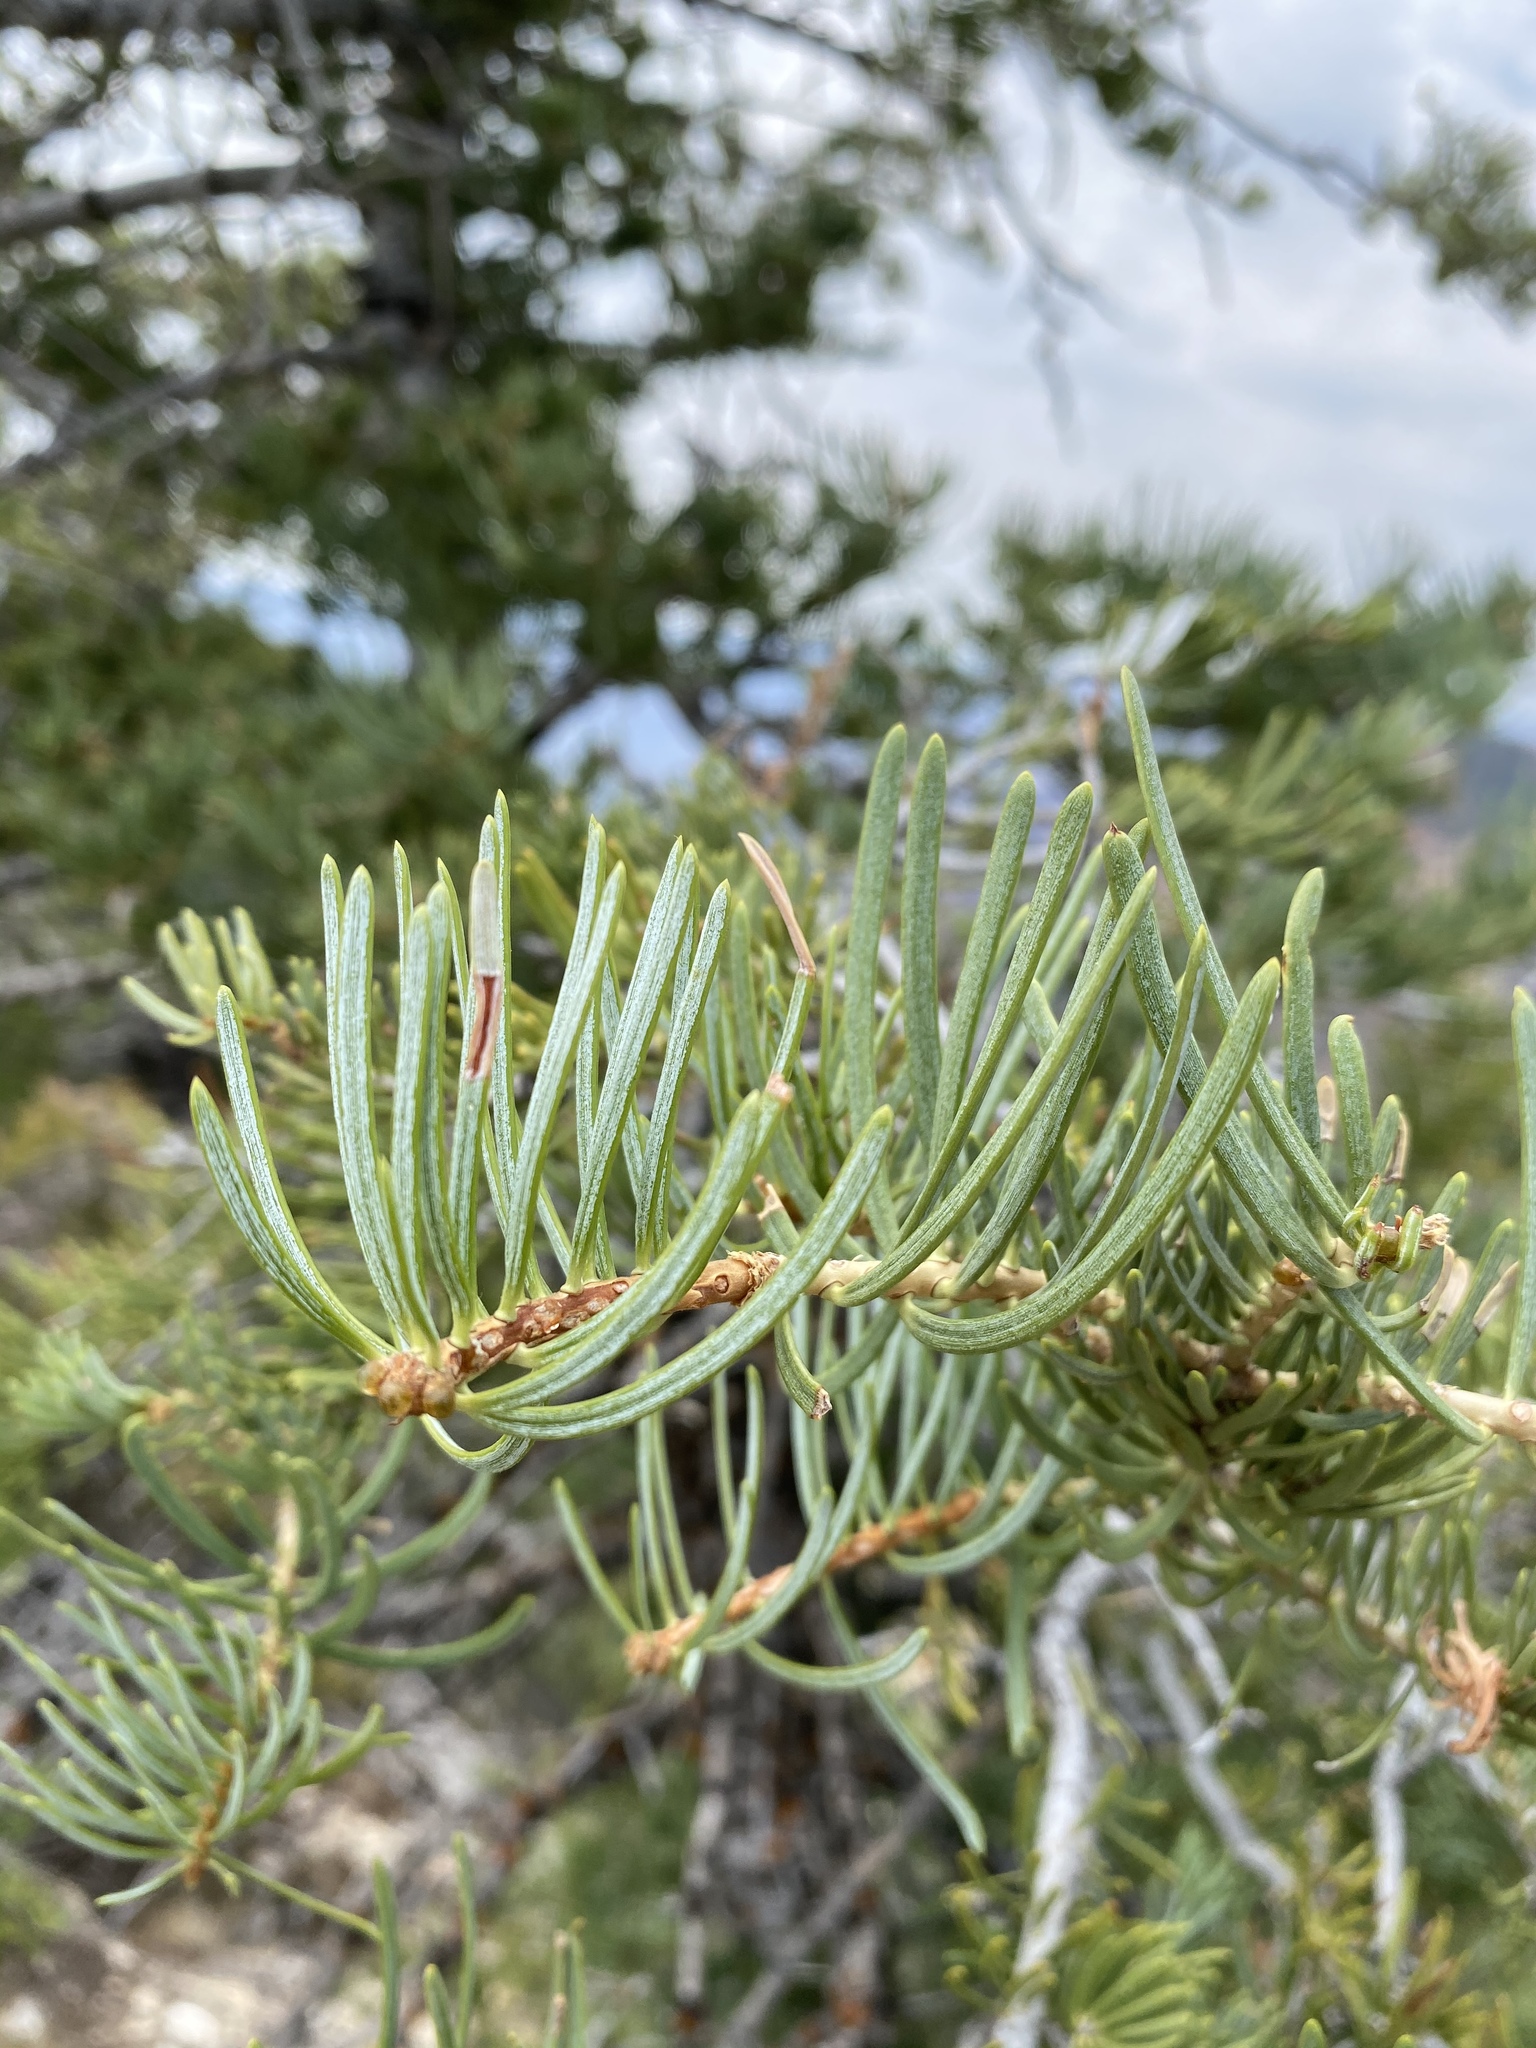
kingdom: Plantae
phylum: Tracheophyta
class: Pinopsida
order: Pinales
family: Pinaceae
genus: Abies
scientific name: Abies concolor
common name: Colorado fir
